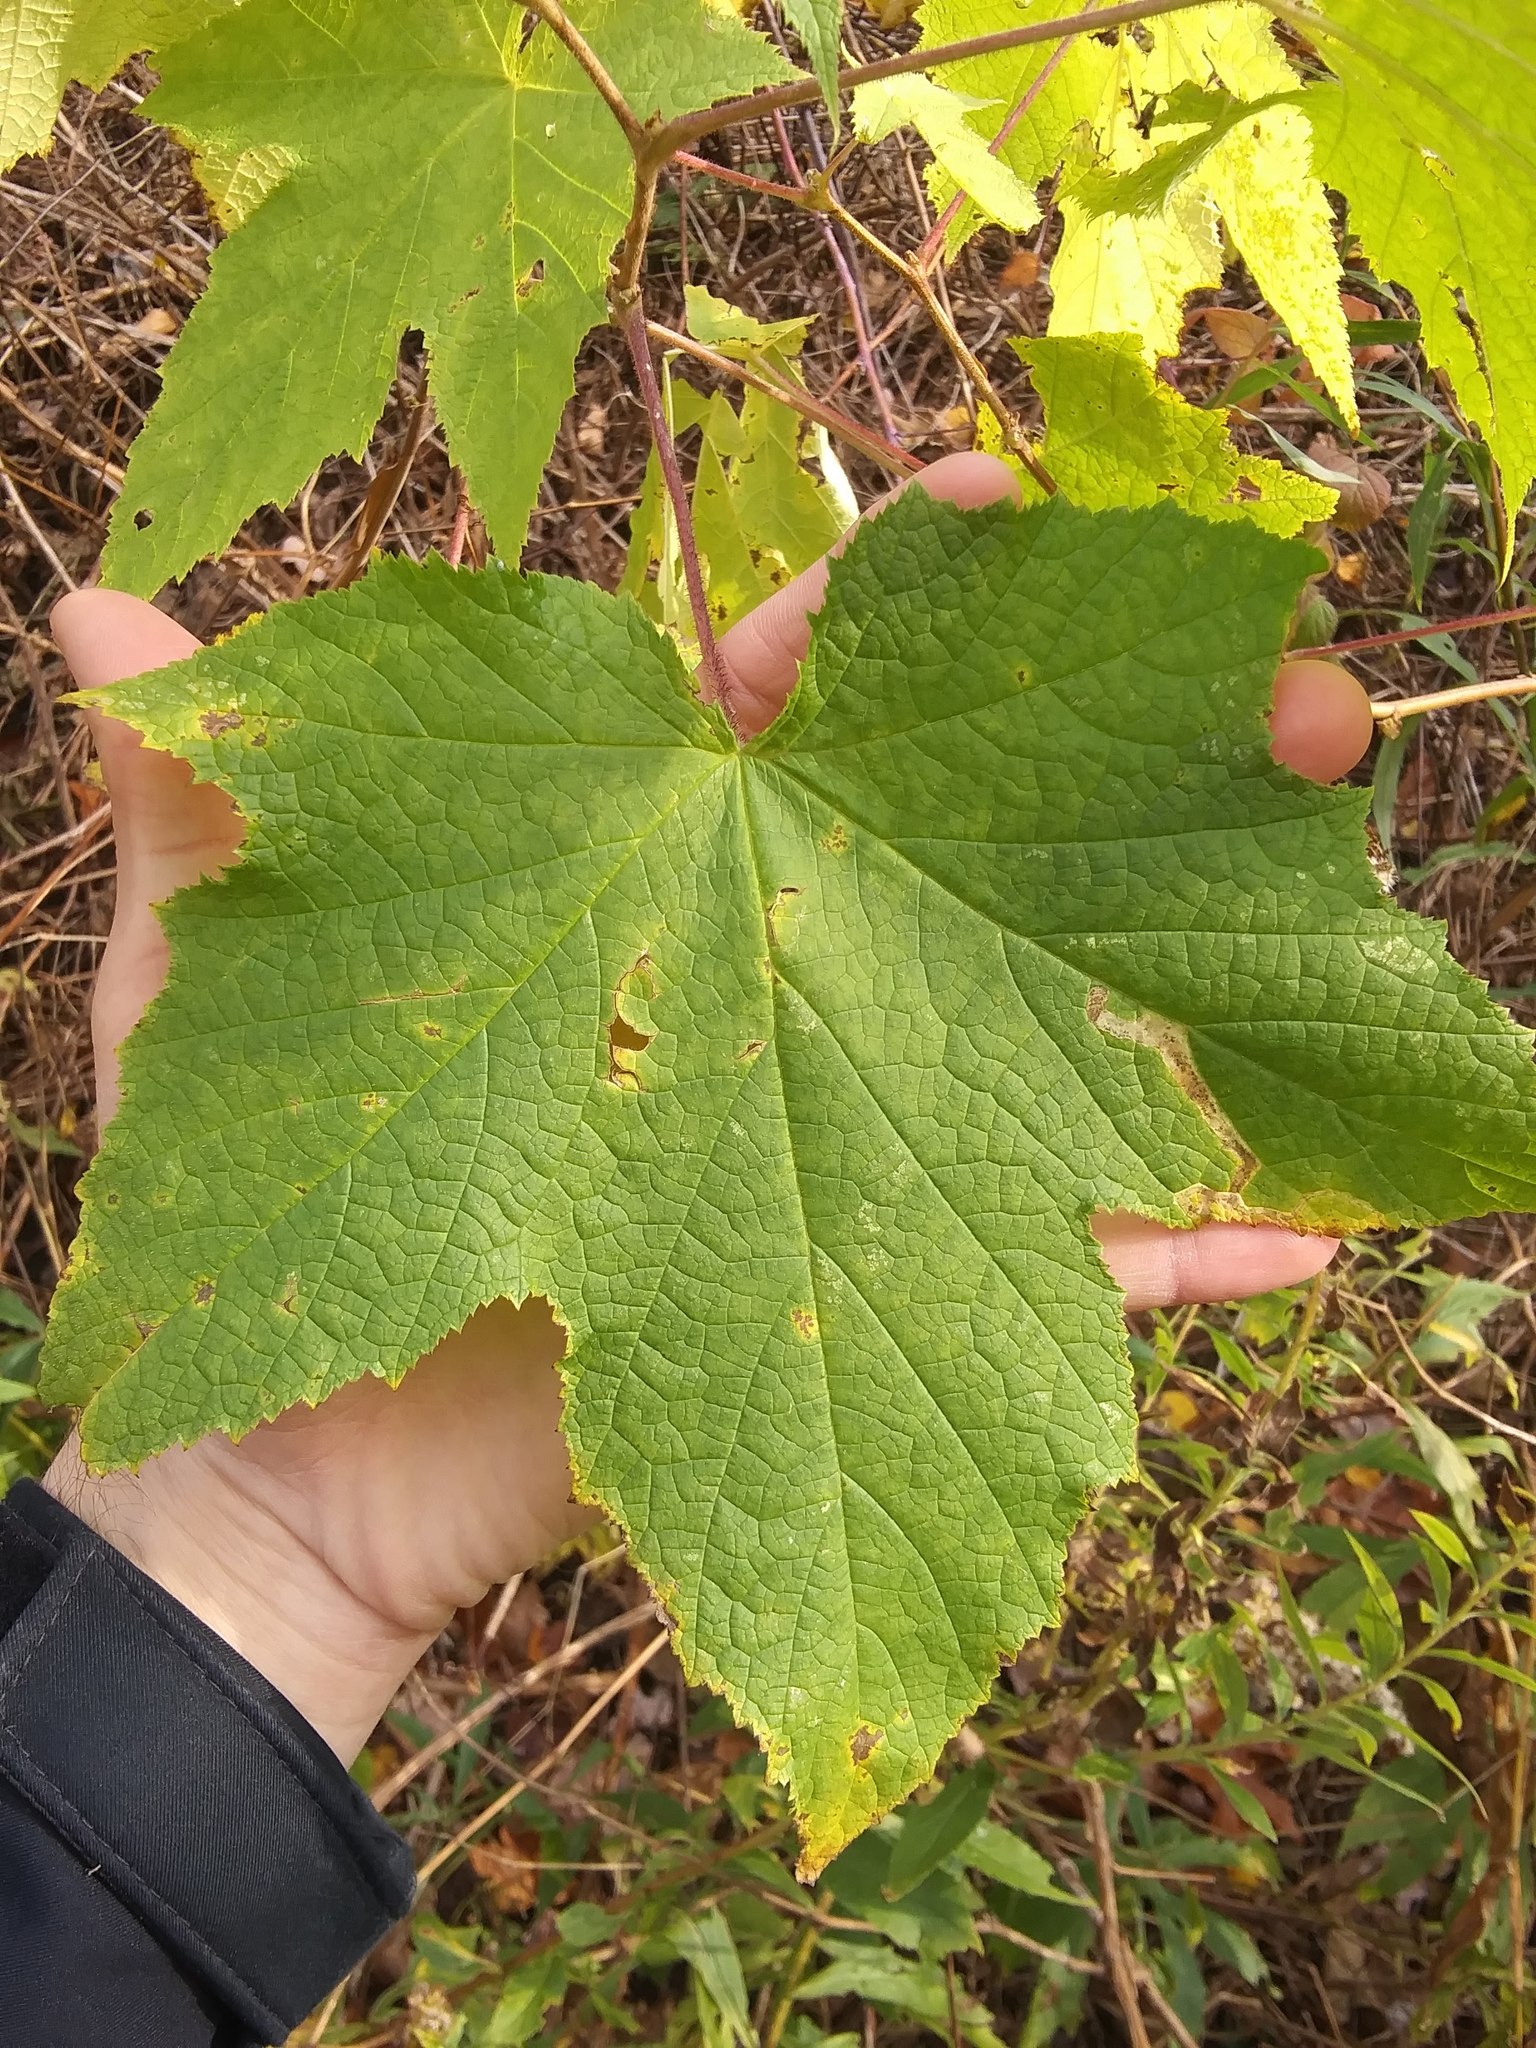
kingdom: Plantae
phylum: Tracheophyta
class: Magnoliopsida
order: Rosales
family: Rosaceae
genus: Rubus
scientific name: Rubus odoratus
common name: Purple-flowered raspberry
